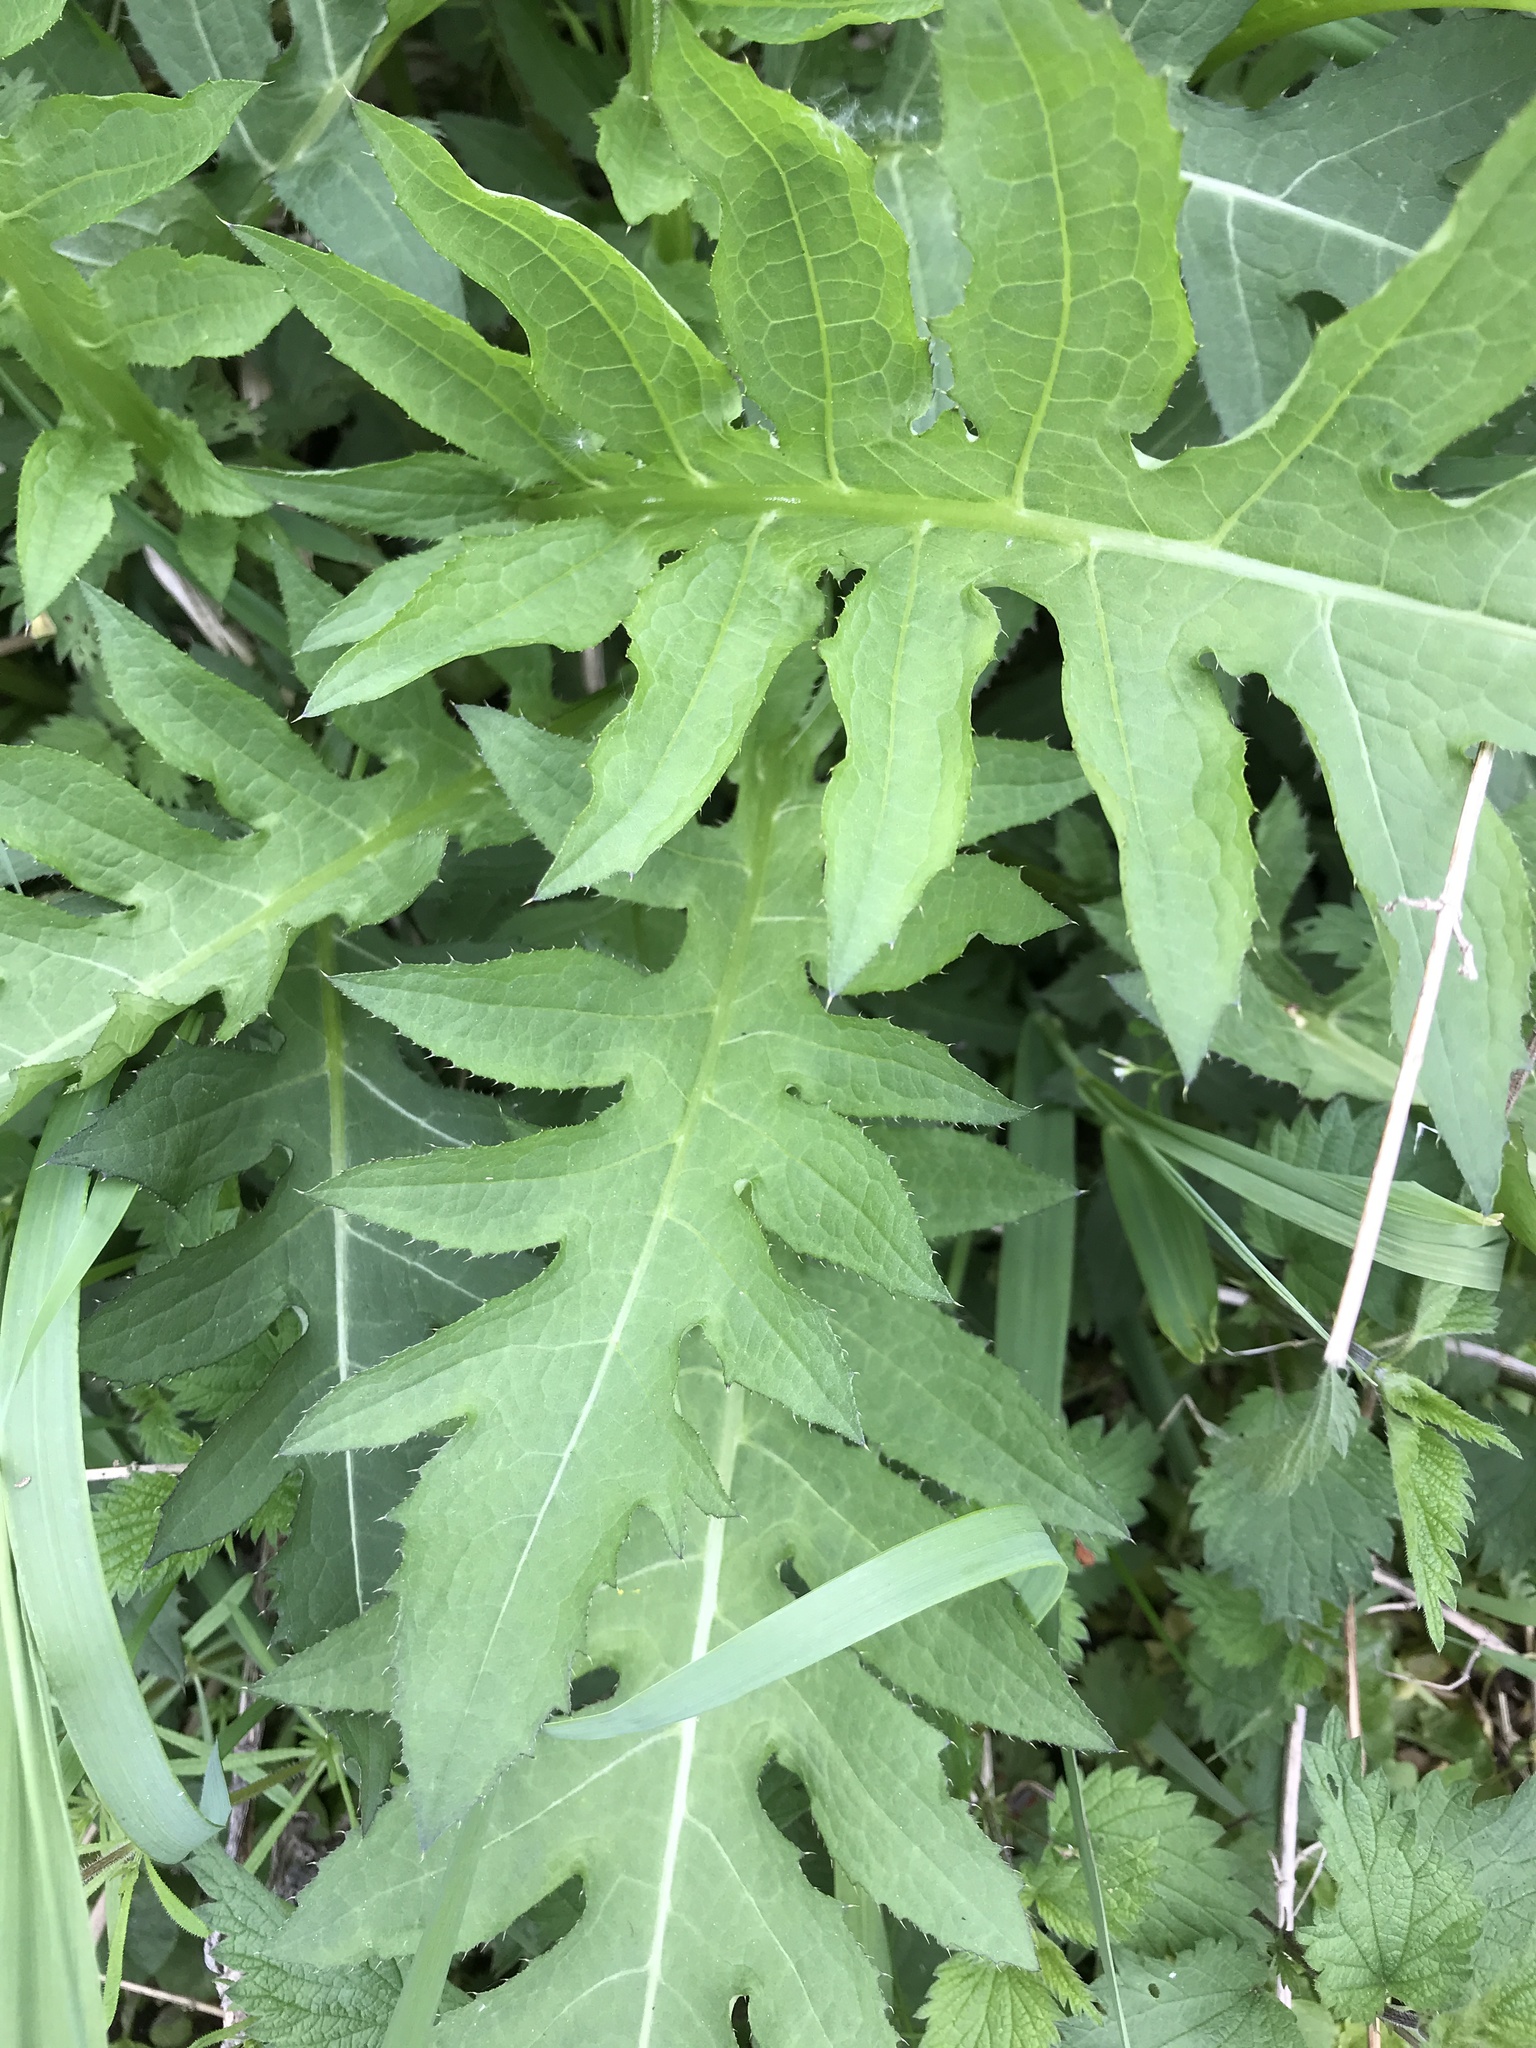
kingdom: Plantae
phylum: Tracheophyta
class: Magnoliopsida
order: Asterales
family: Asteraceae
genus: Cirsium
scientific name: Cirsium oleraceum
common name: Cabbage thistle
